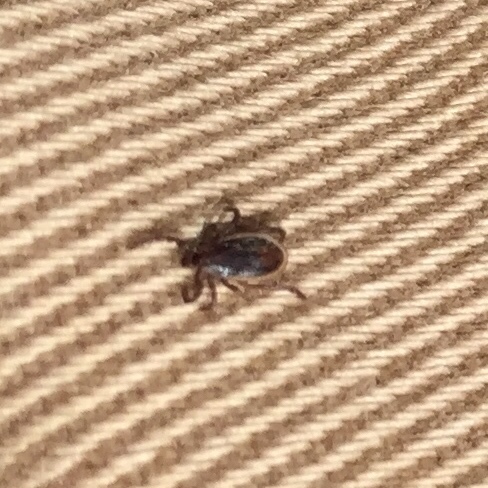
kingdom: Animalia
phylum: Arthropoda
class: Arachnida
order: Ixodida
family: Ixodidae
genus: Ixodes
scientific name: Ixodes scapularis
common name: Black legged tick
